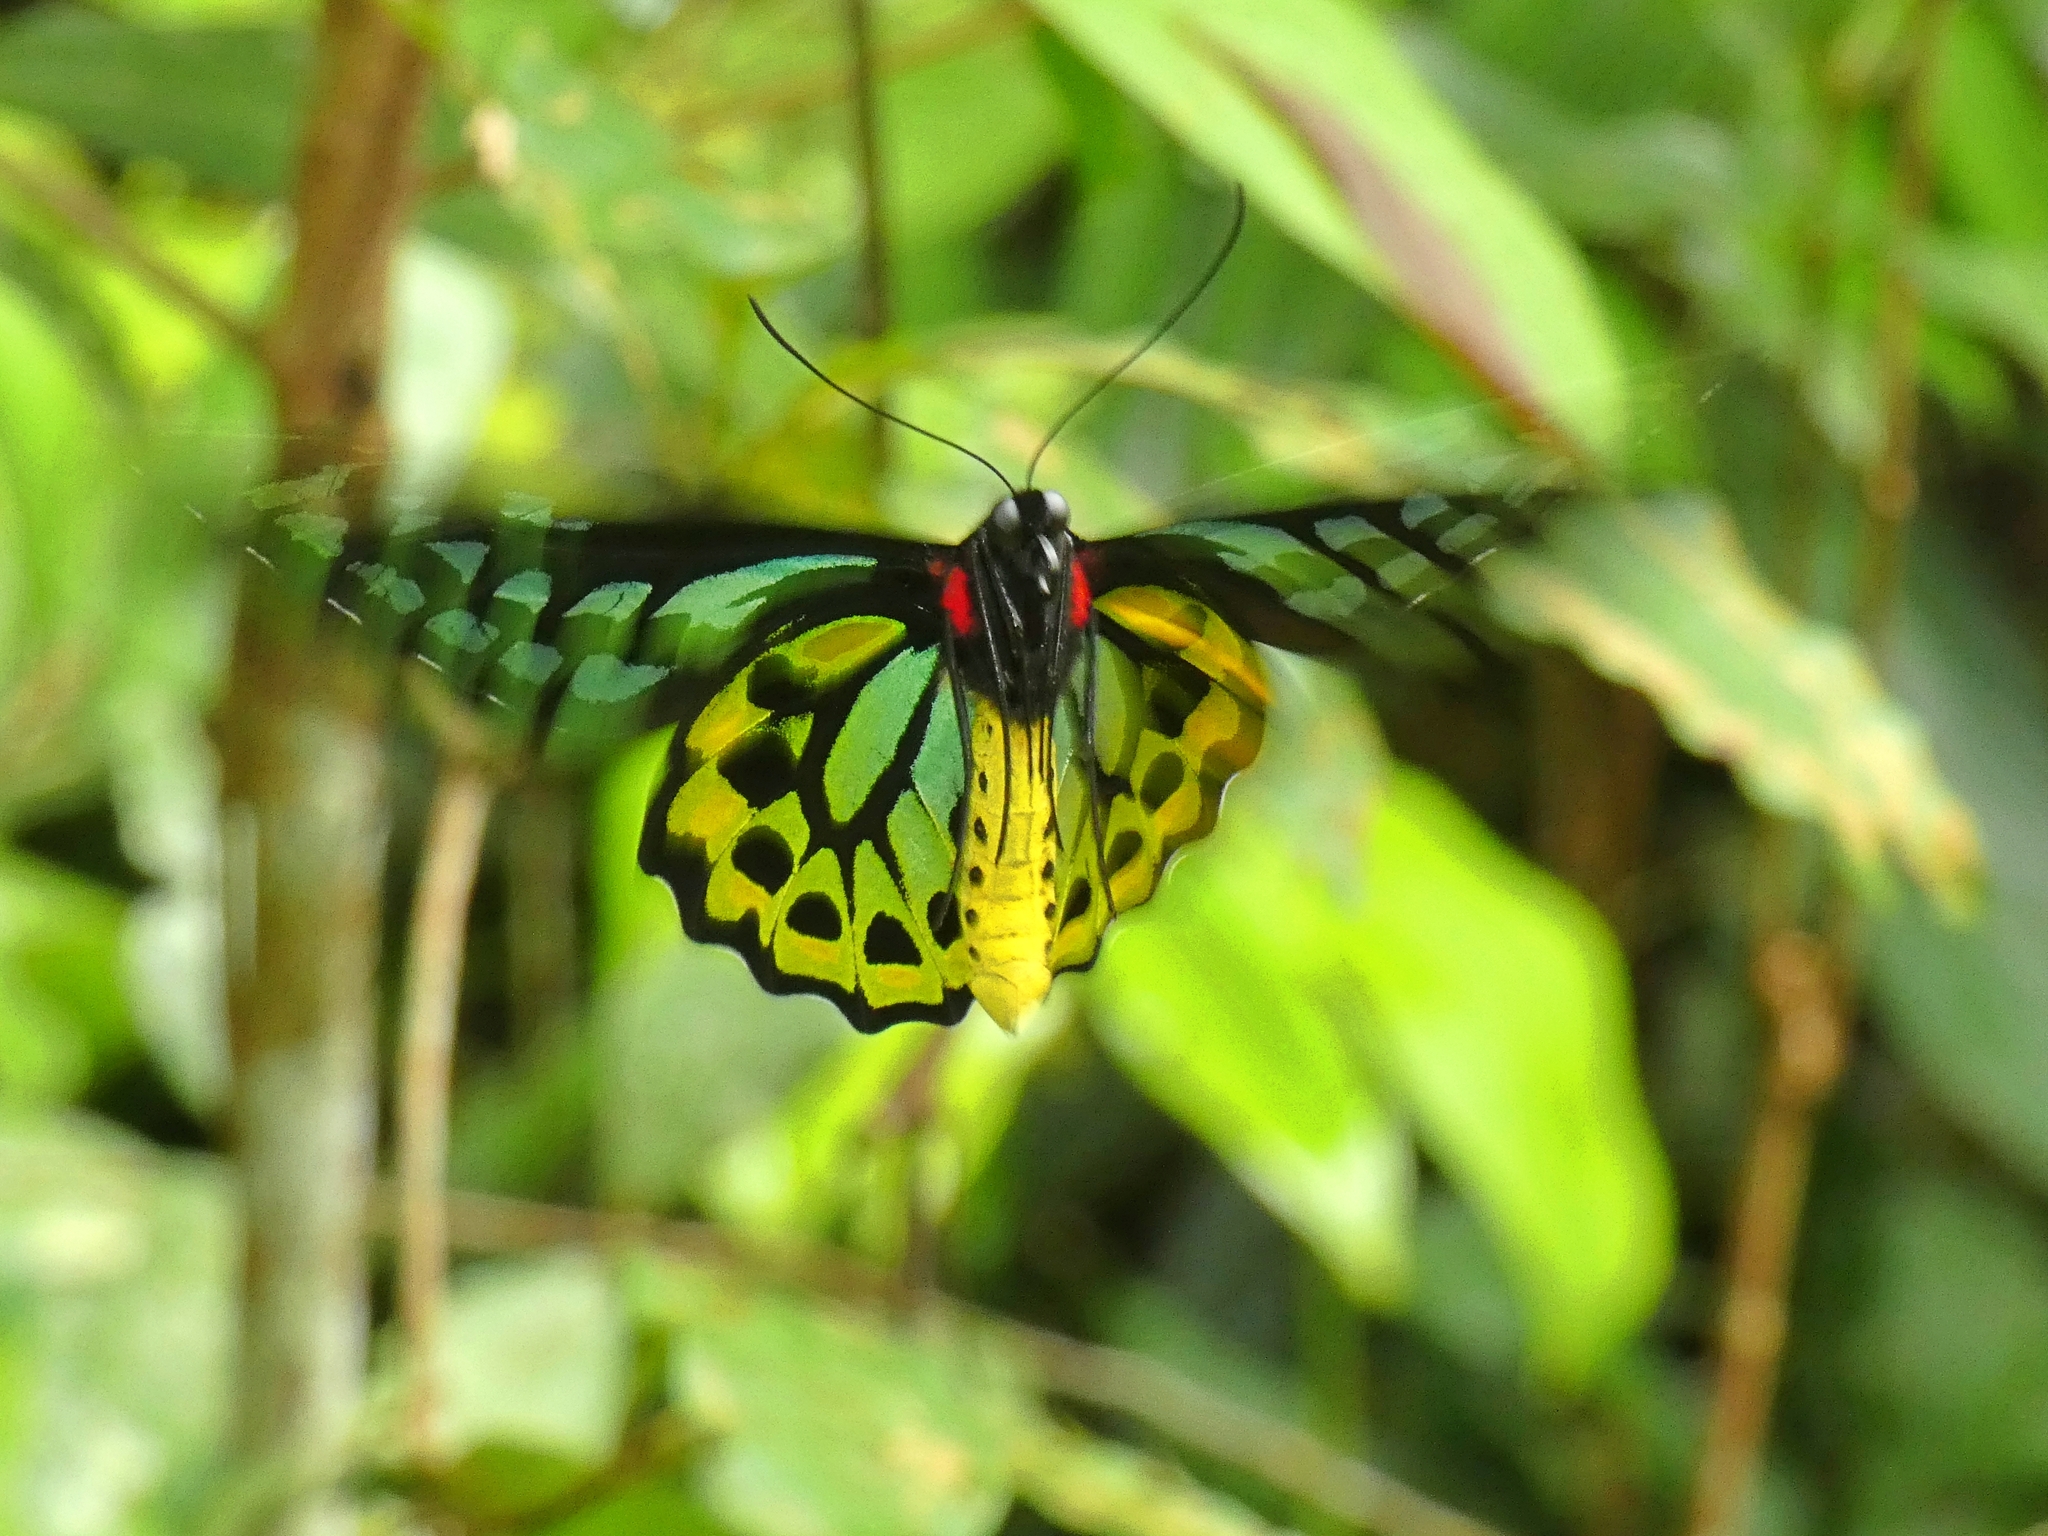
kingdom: Animalia
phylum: Arthropoda
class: Insecta
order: Lepidoptera
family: Papilionidae
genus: Ornithoptera
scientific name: Ornithoptera euphorion
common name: Cairns birdwing
